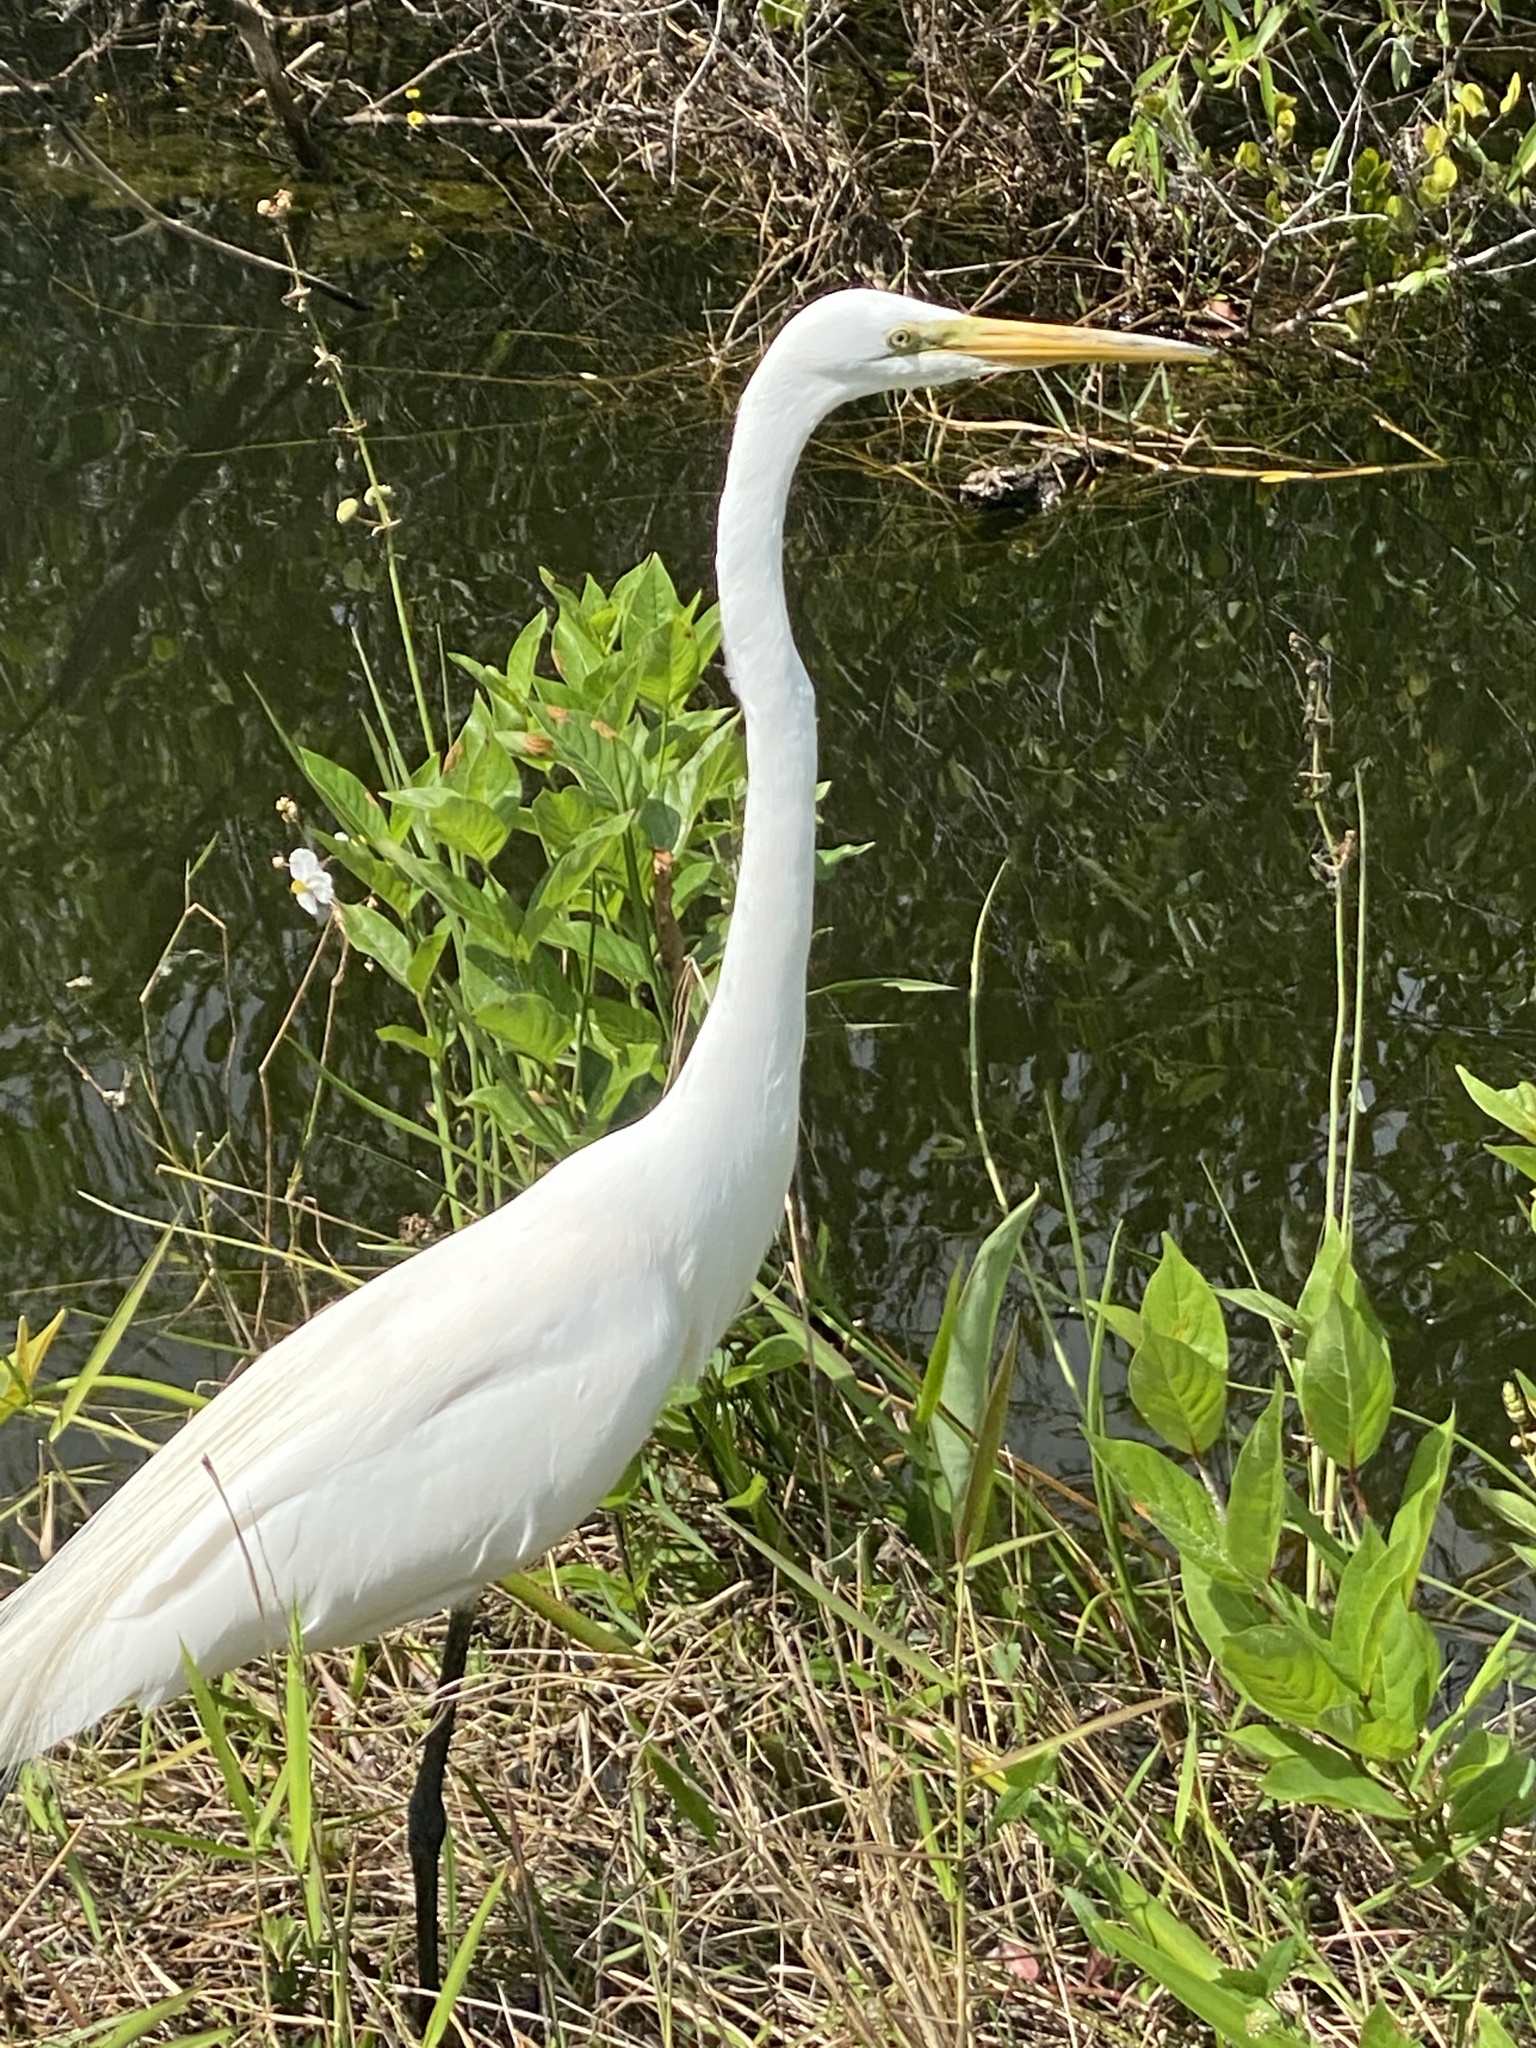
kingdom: Animalia
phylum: Chordata
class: Aves
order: Pelecaniformes
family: Ardeidae
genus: Ardea
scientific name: Ardea alba
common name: Great egret
